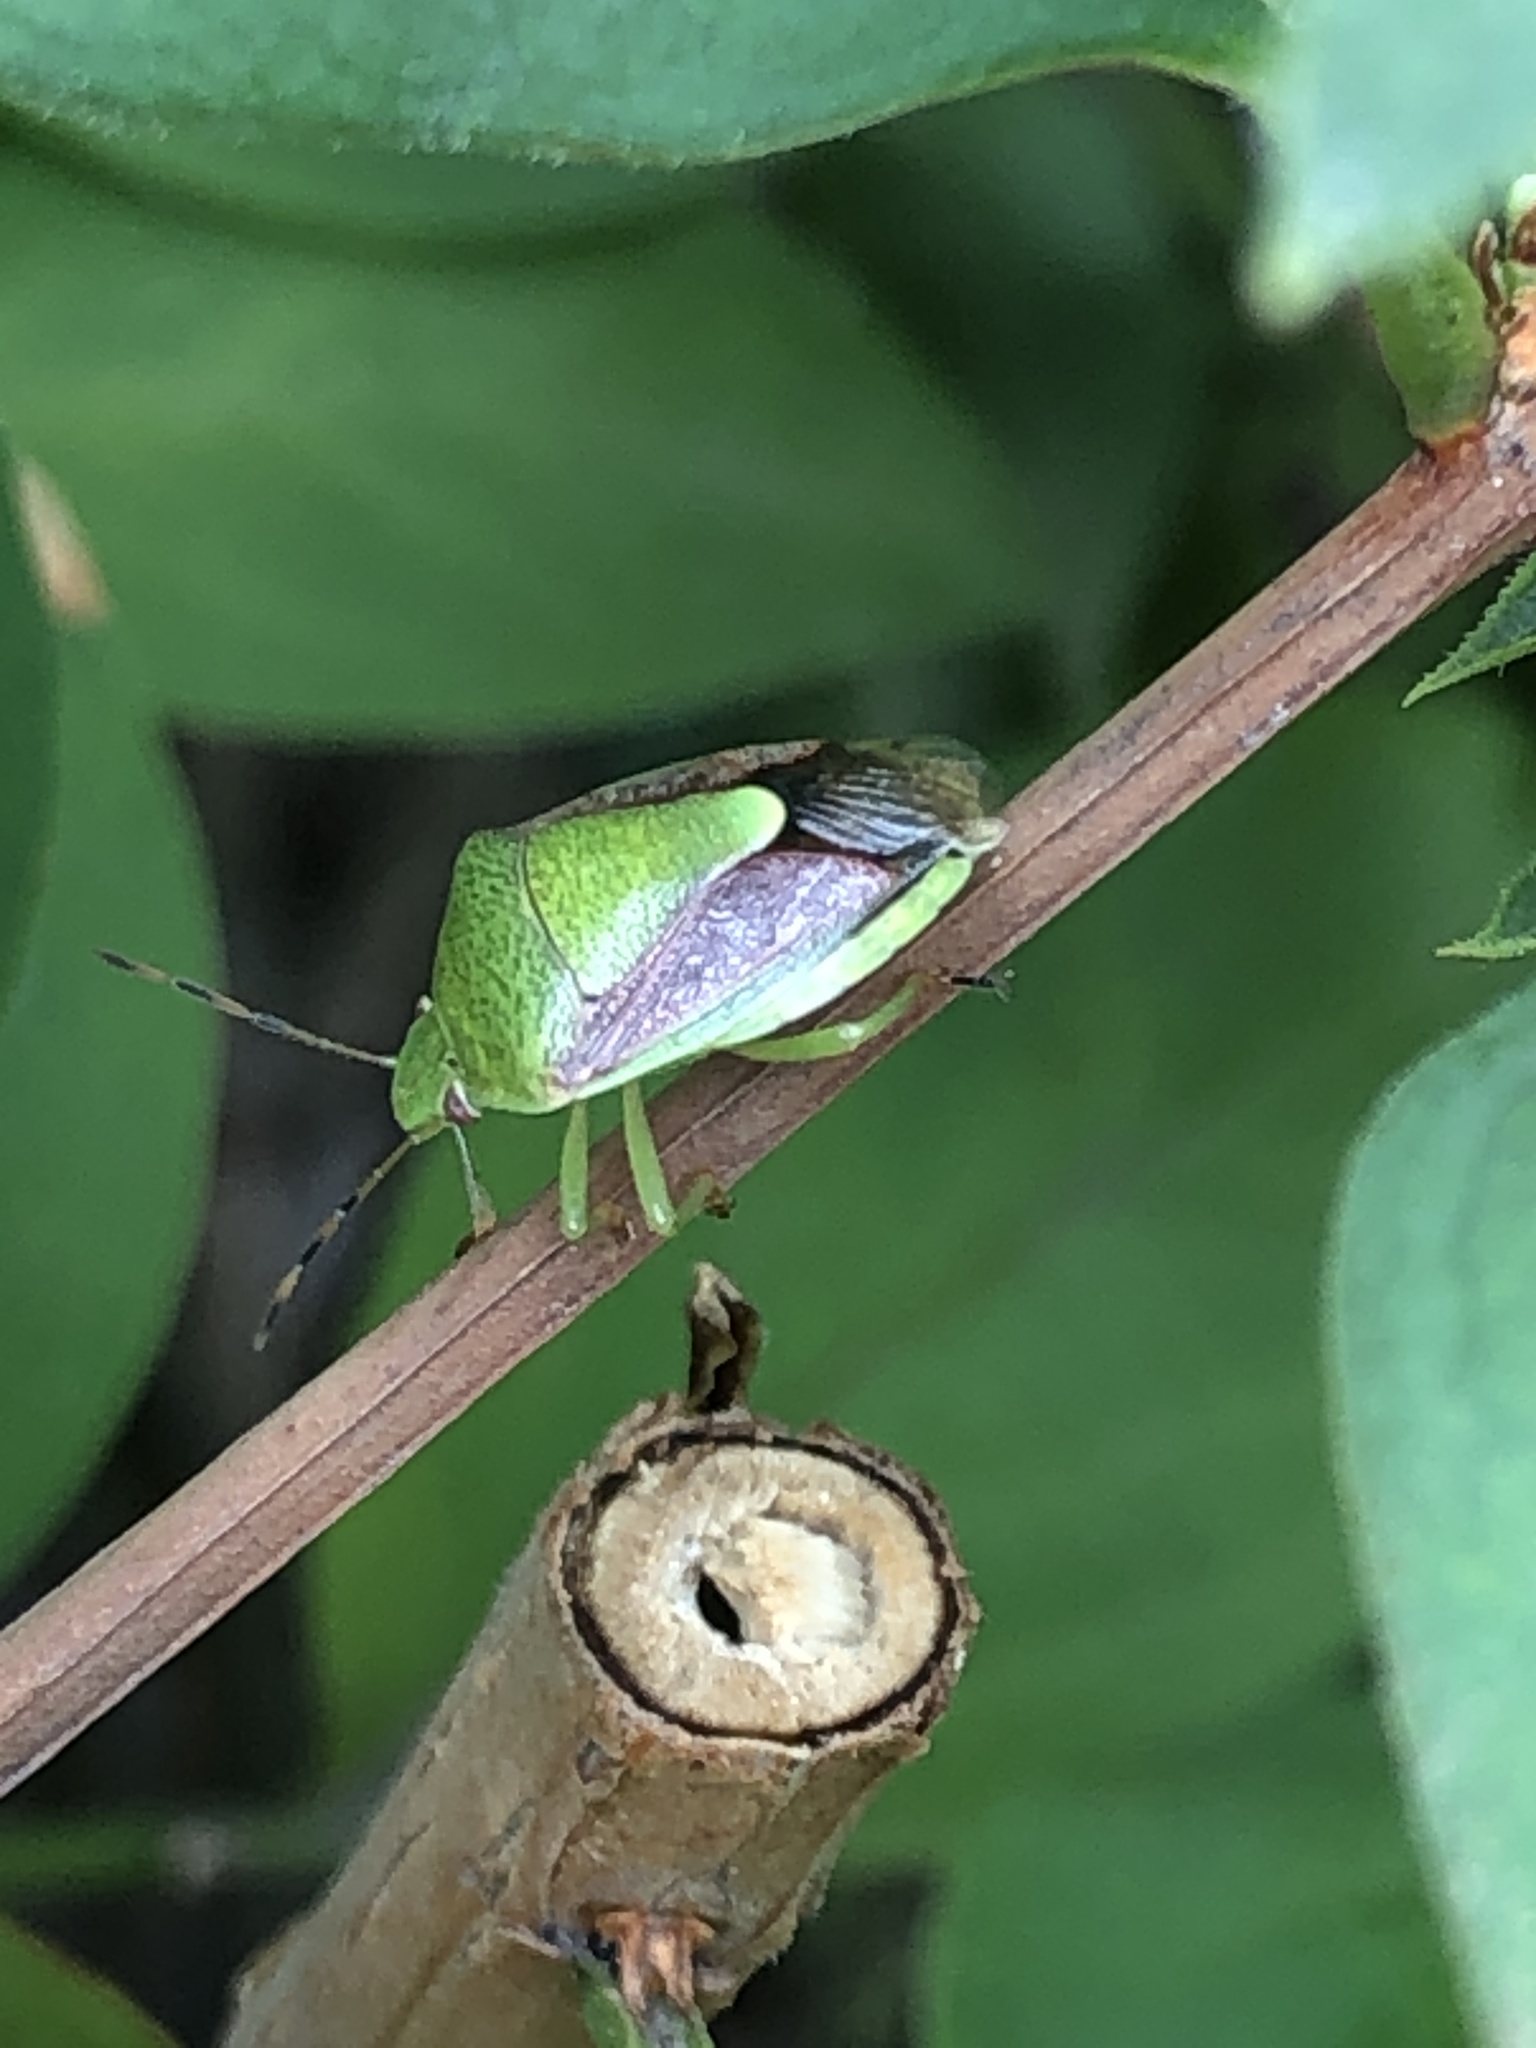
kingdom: Animalia
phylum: Arthropoda
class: Insecta
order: Hemiptera
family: Pentatomidae
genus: Plautia
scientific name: Plautia stali
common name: Stink bug
